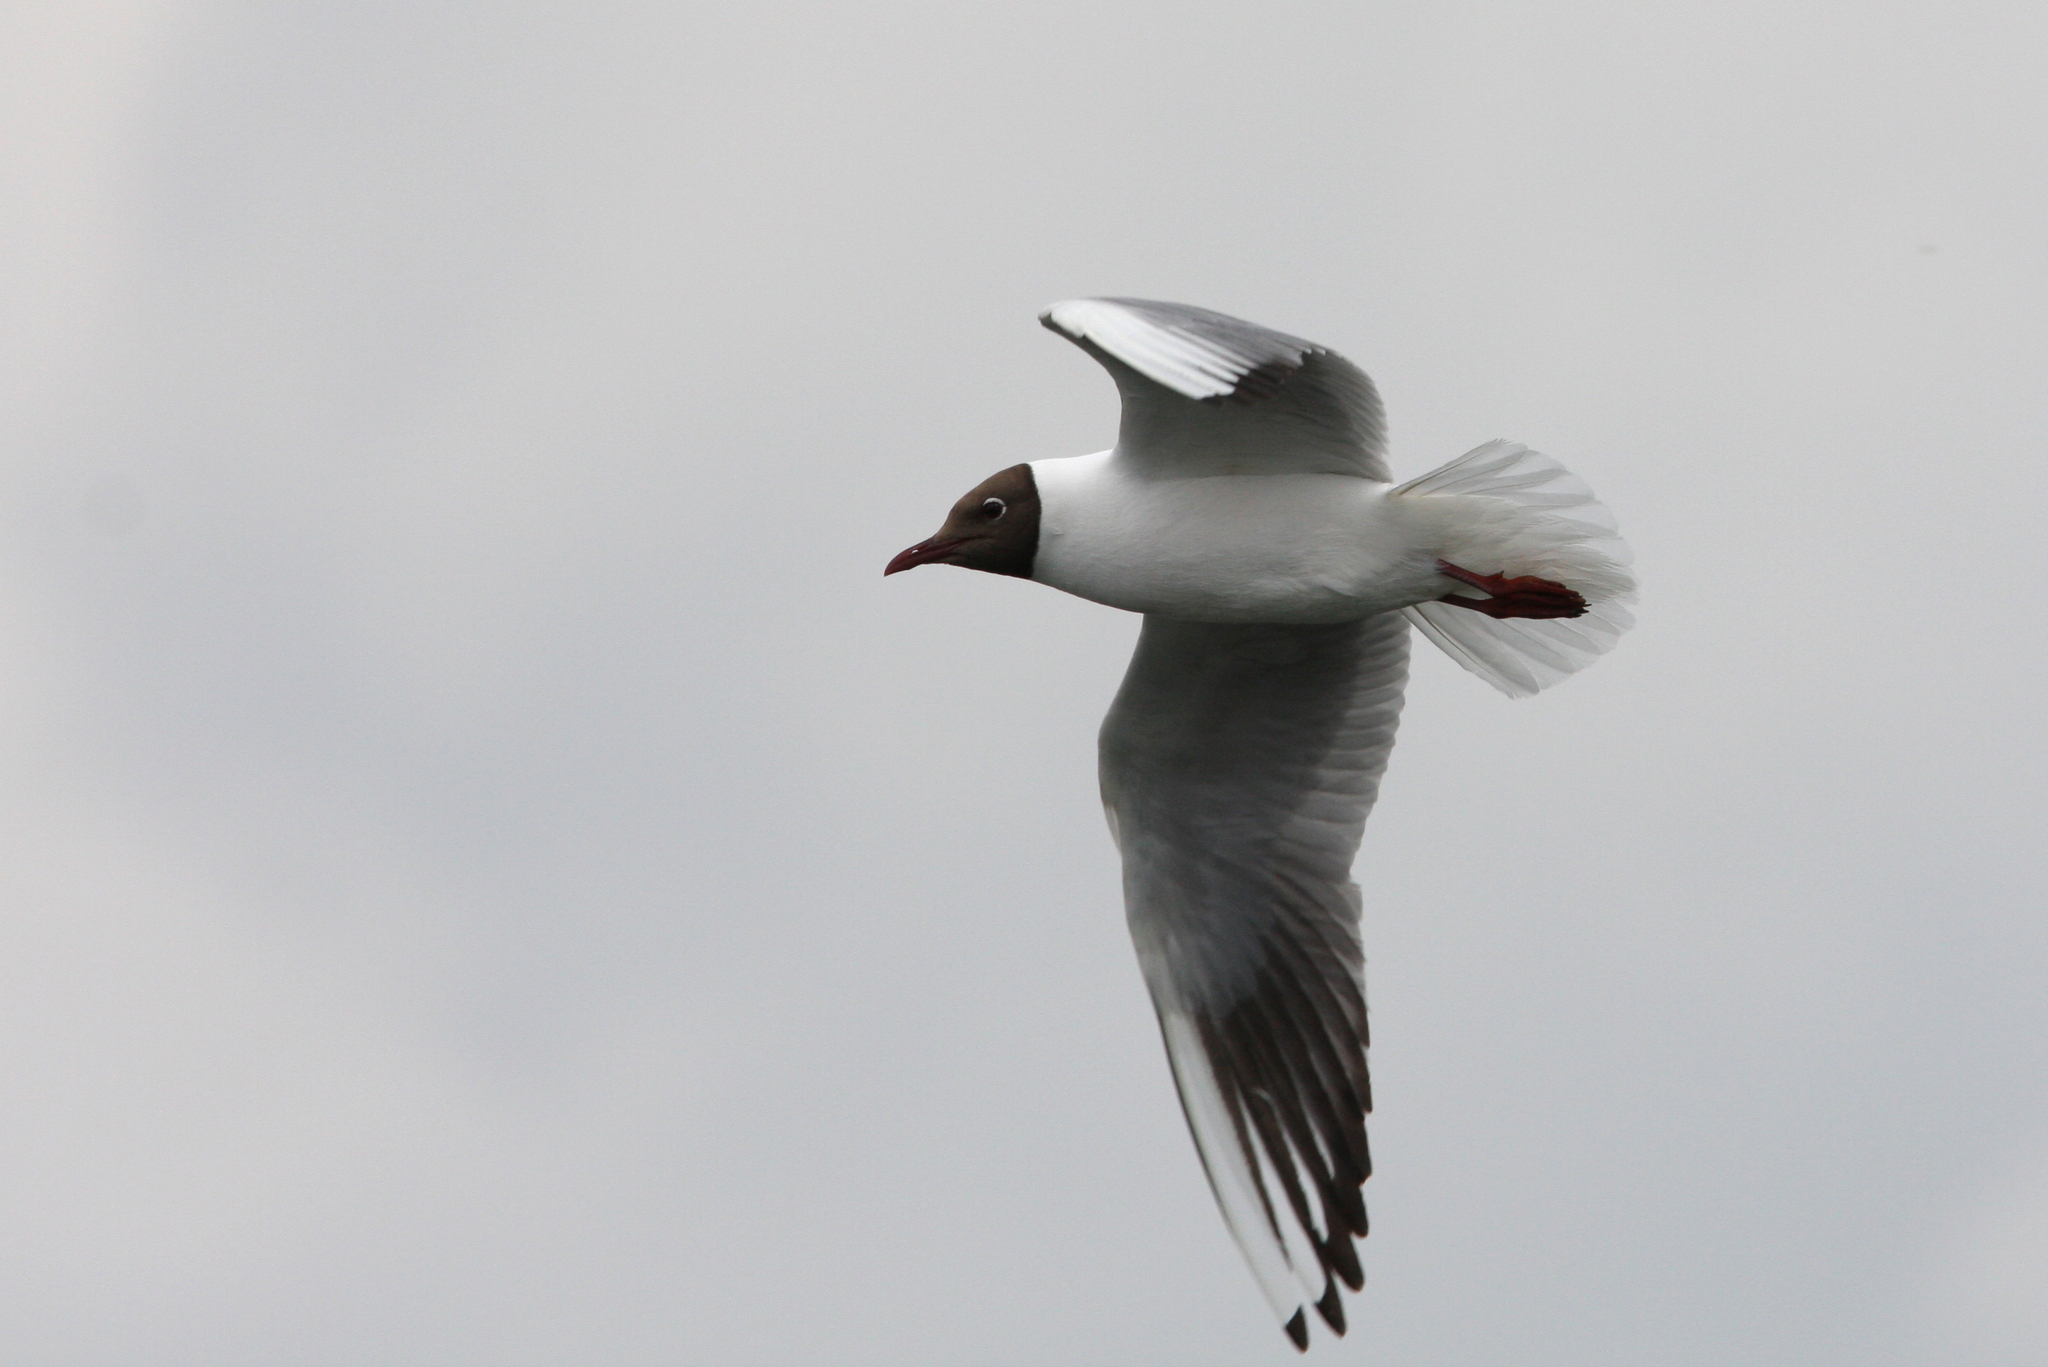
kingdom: Animalia
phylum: Chordata
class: Aves
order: Charadriiformes
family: Laridae
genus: Chroicocephalus
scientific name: Chroicocephalus ridibundus
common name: Black-headed gull
